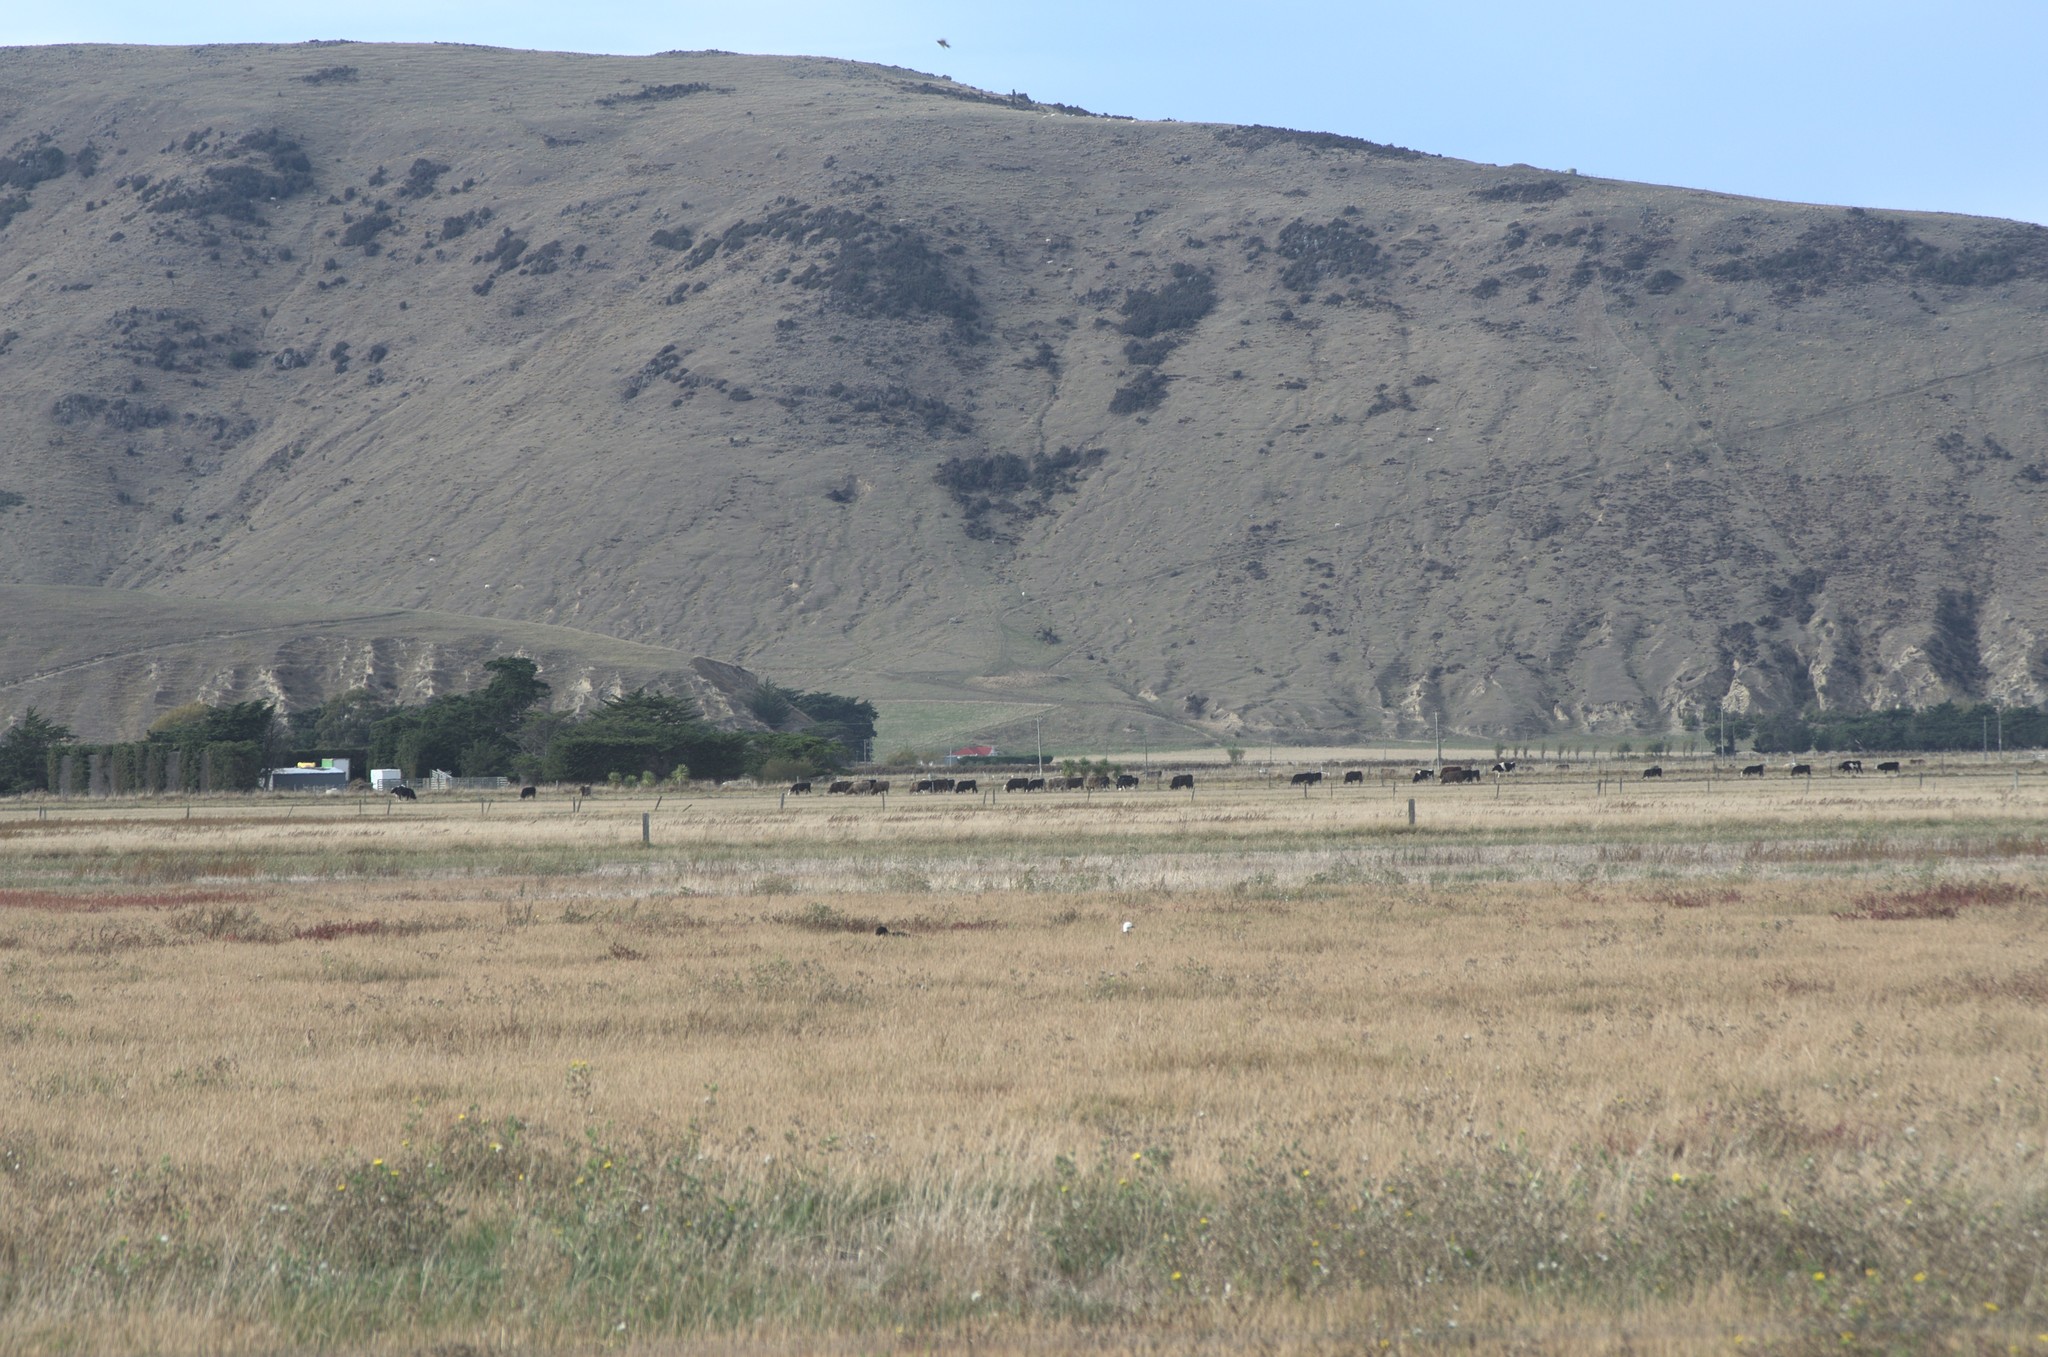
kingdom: Animalia
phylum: Chordata
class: Aves
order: Anseriformes
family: Anatidae
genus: Tadorna
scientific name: Tadorna variegata
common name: Paradise shelduck
